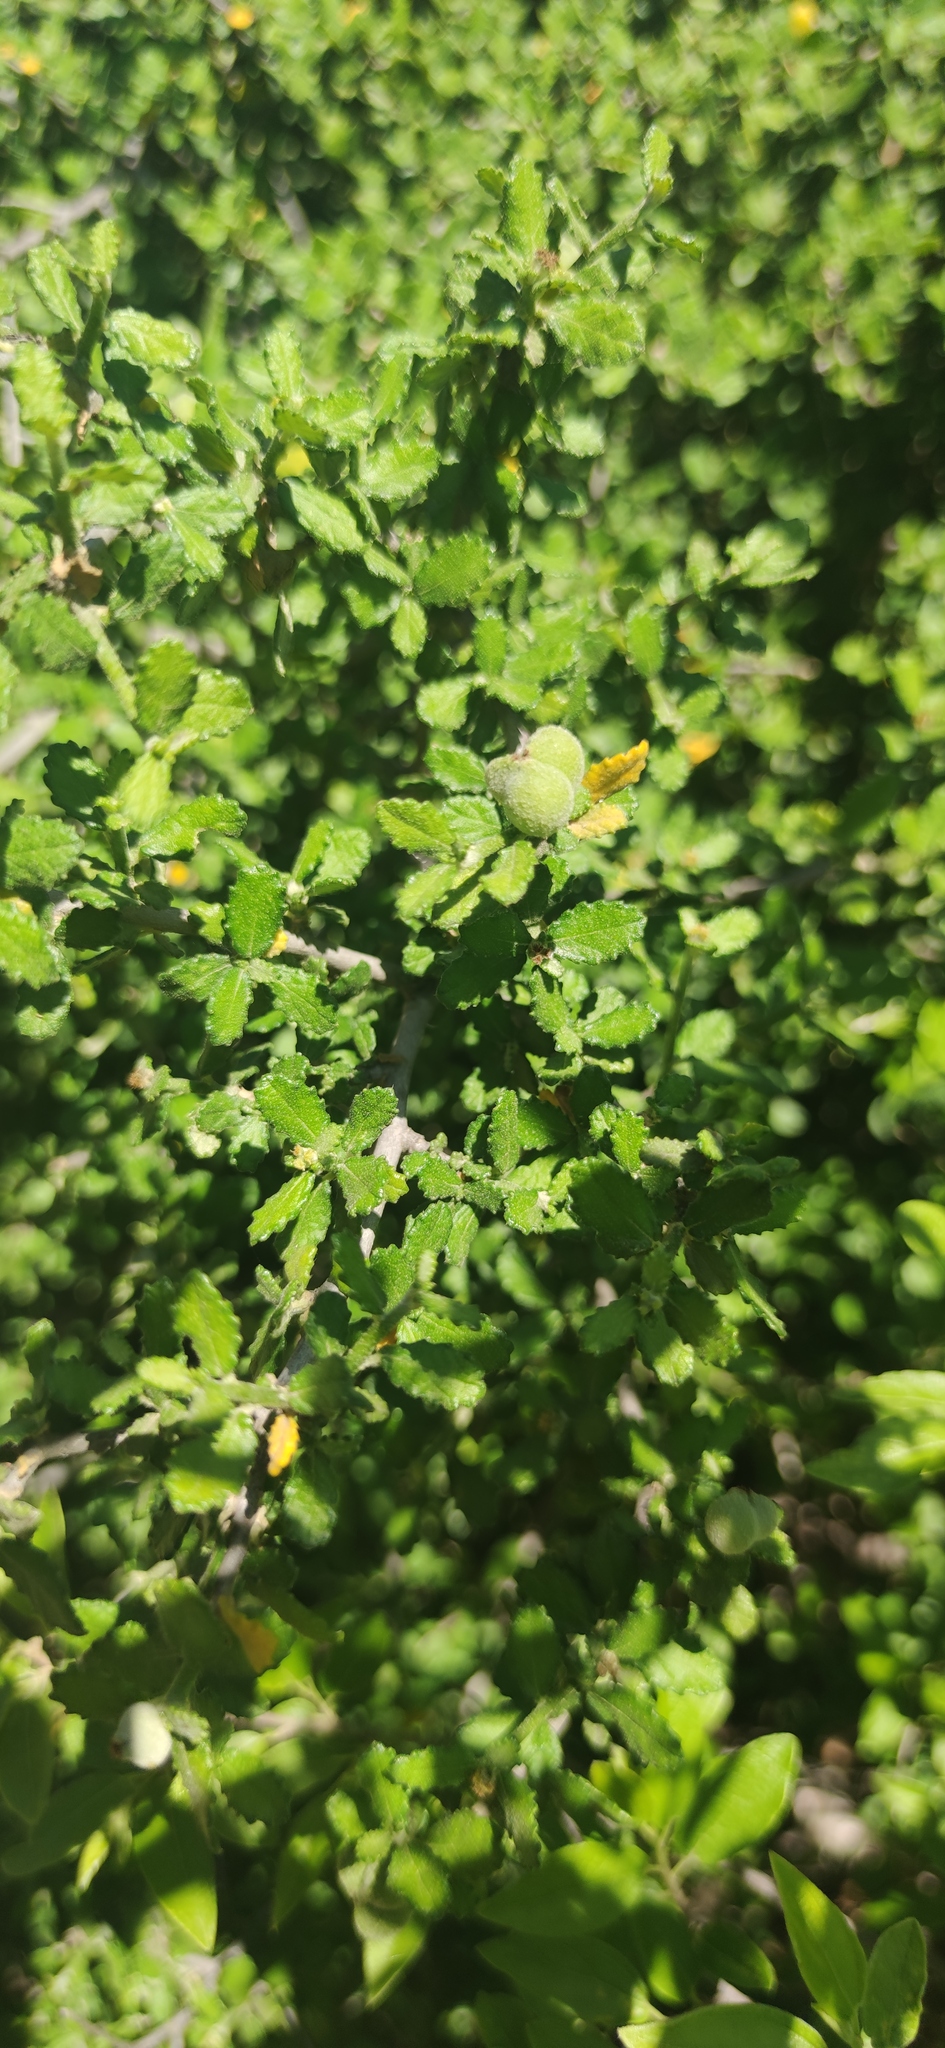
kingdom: Plantae
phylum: Tracheophyta
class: Magnoliopsida
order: Malpighiales
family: Euphorbiaceae
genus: Bernardia
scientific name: Bernardia myricifolia
